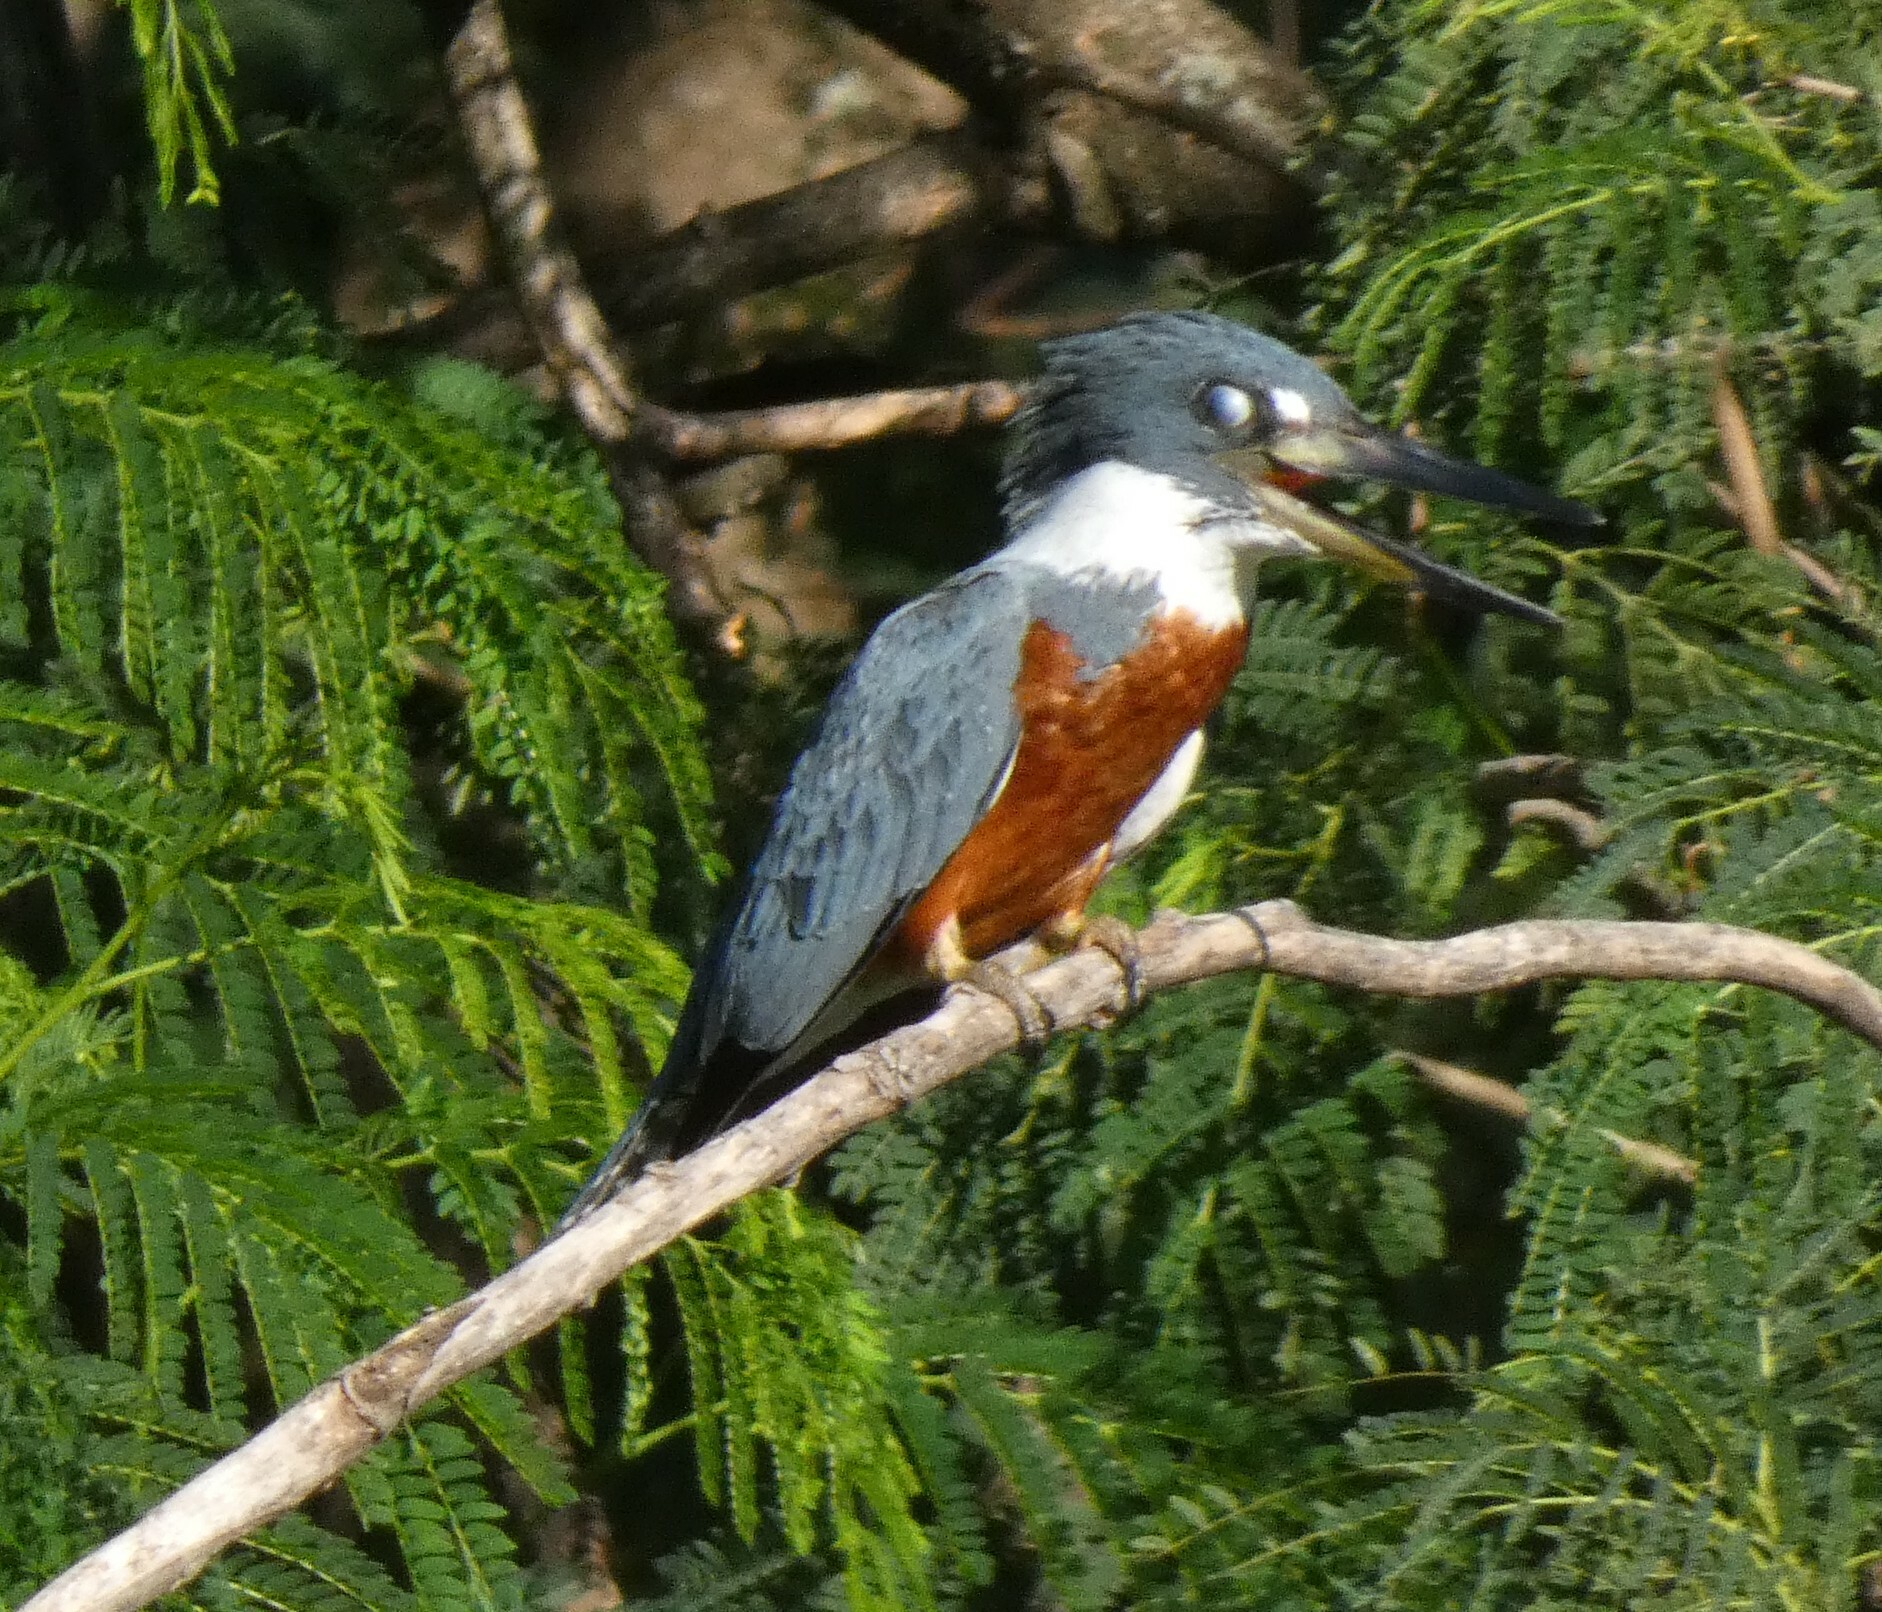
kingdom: Animalia
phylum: Chordata
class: Aves
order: Coraciiformes
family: Alcedinidae
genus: Megaceryle
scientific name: Megaceryle torquata
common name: Ringed kingfisher
